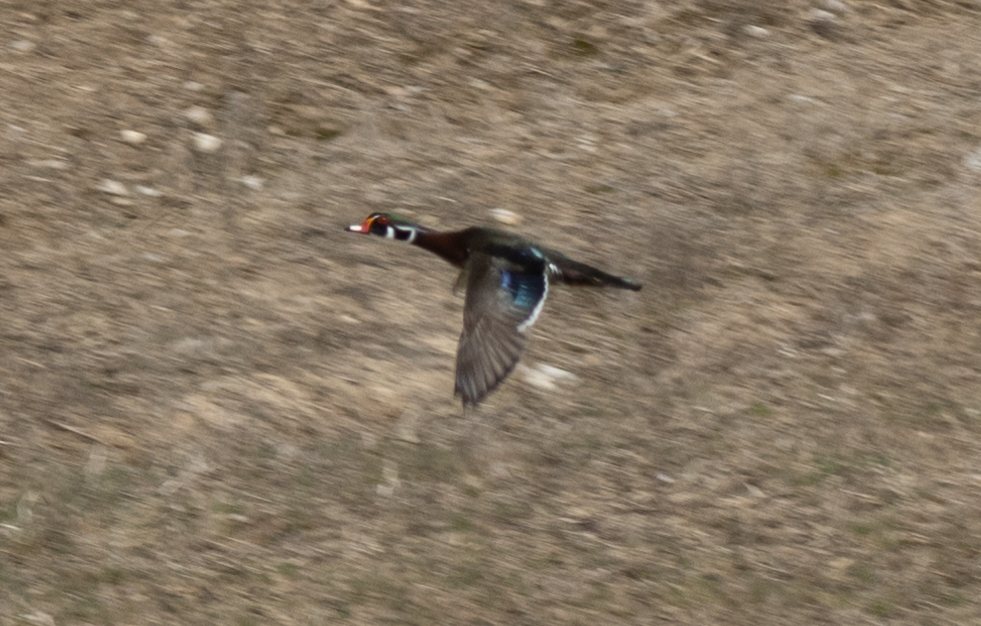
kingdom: Animalia
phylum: Chordata
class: Aves
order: Anseriformes
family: Anatidae
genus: Aix
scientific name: Aix sponsa
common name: Wood duck
